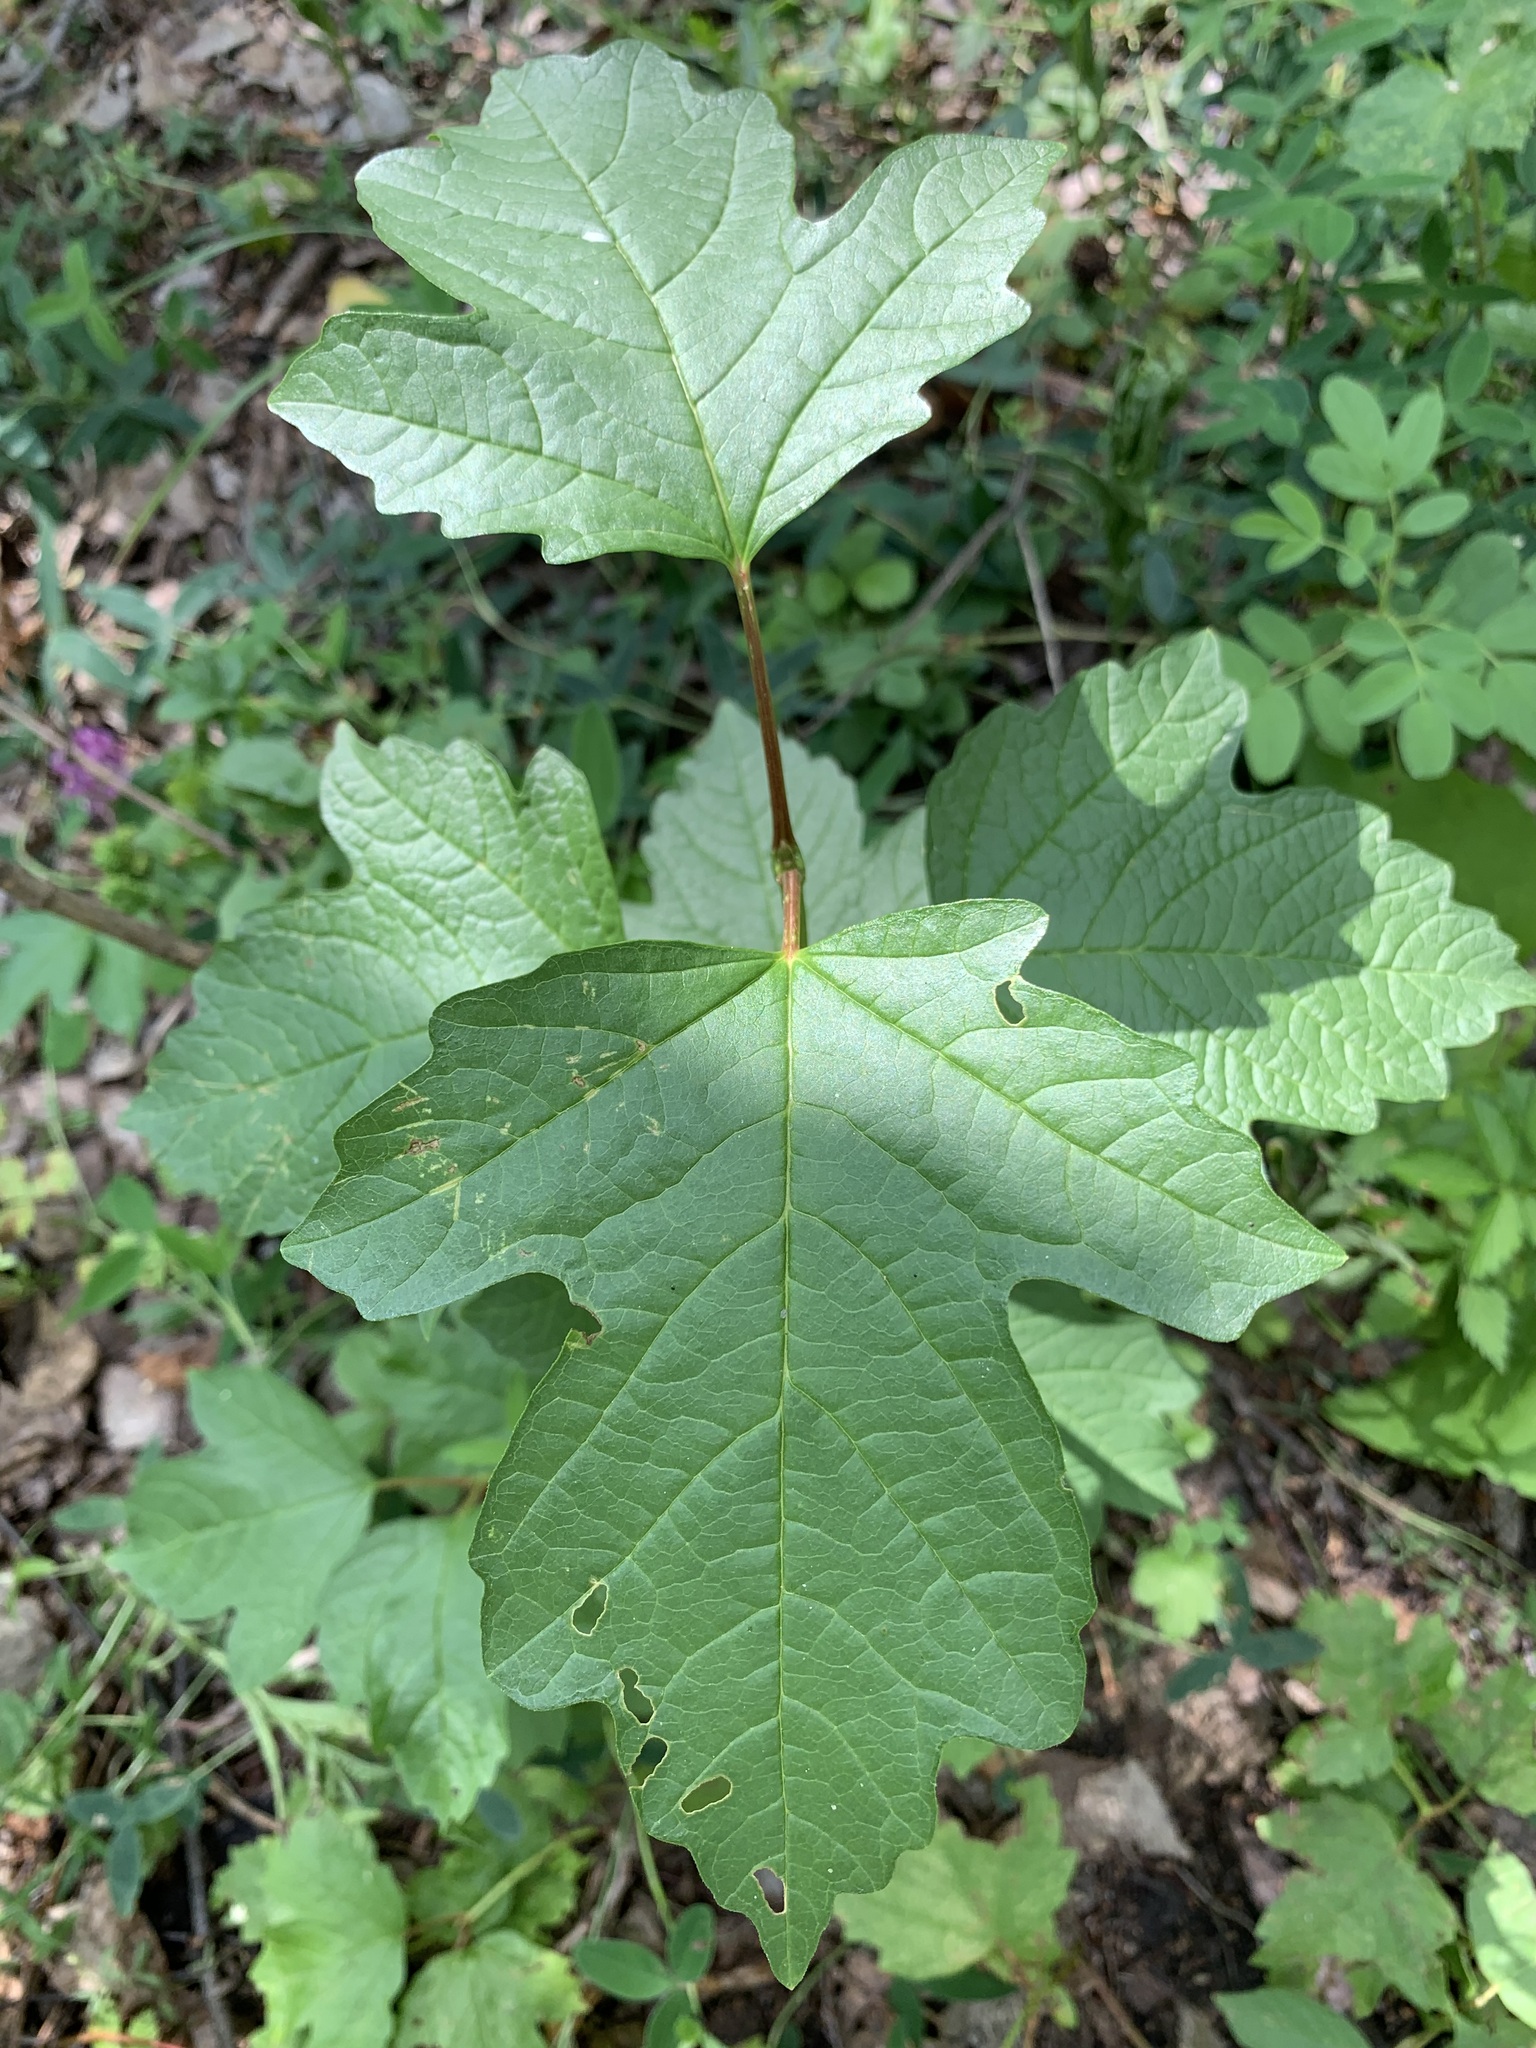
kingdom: Plantae
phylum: Tracheophyta
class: Magnoliopsida
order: Dipsacales
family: Viburnaceae
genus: Viburnum
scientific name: Viburnum opulus
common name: Guelder-rose
